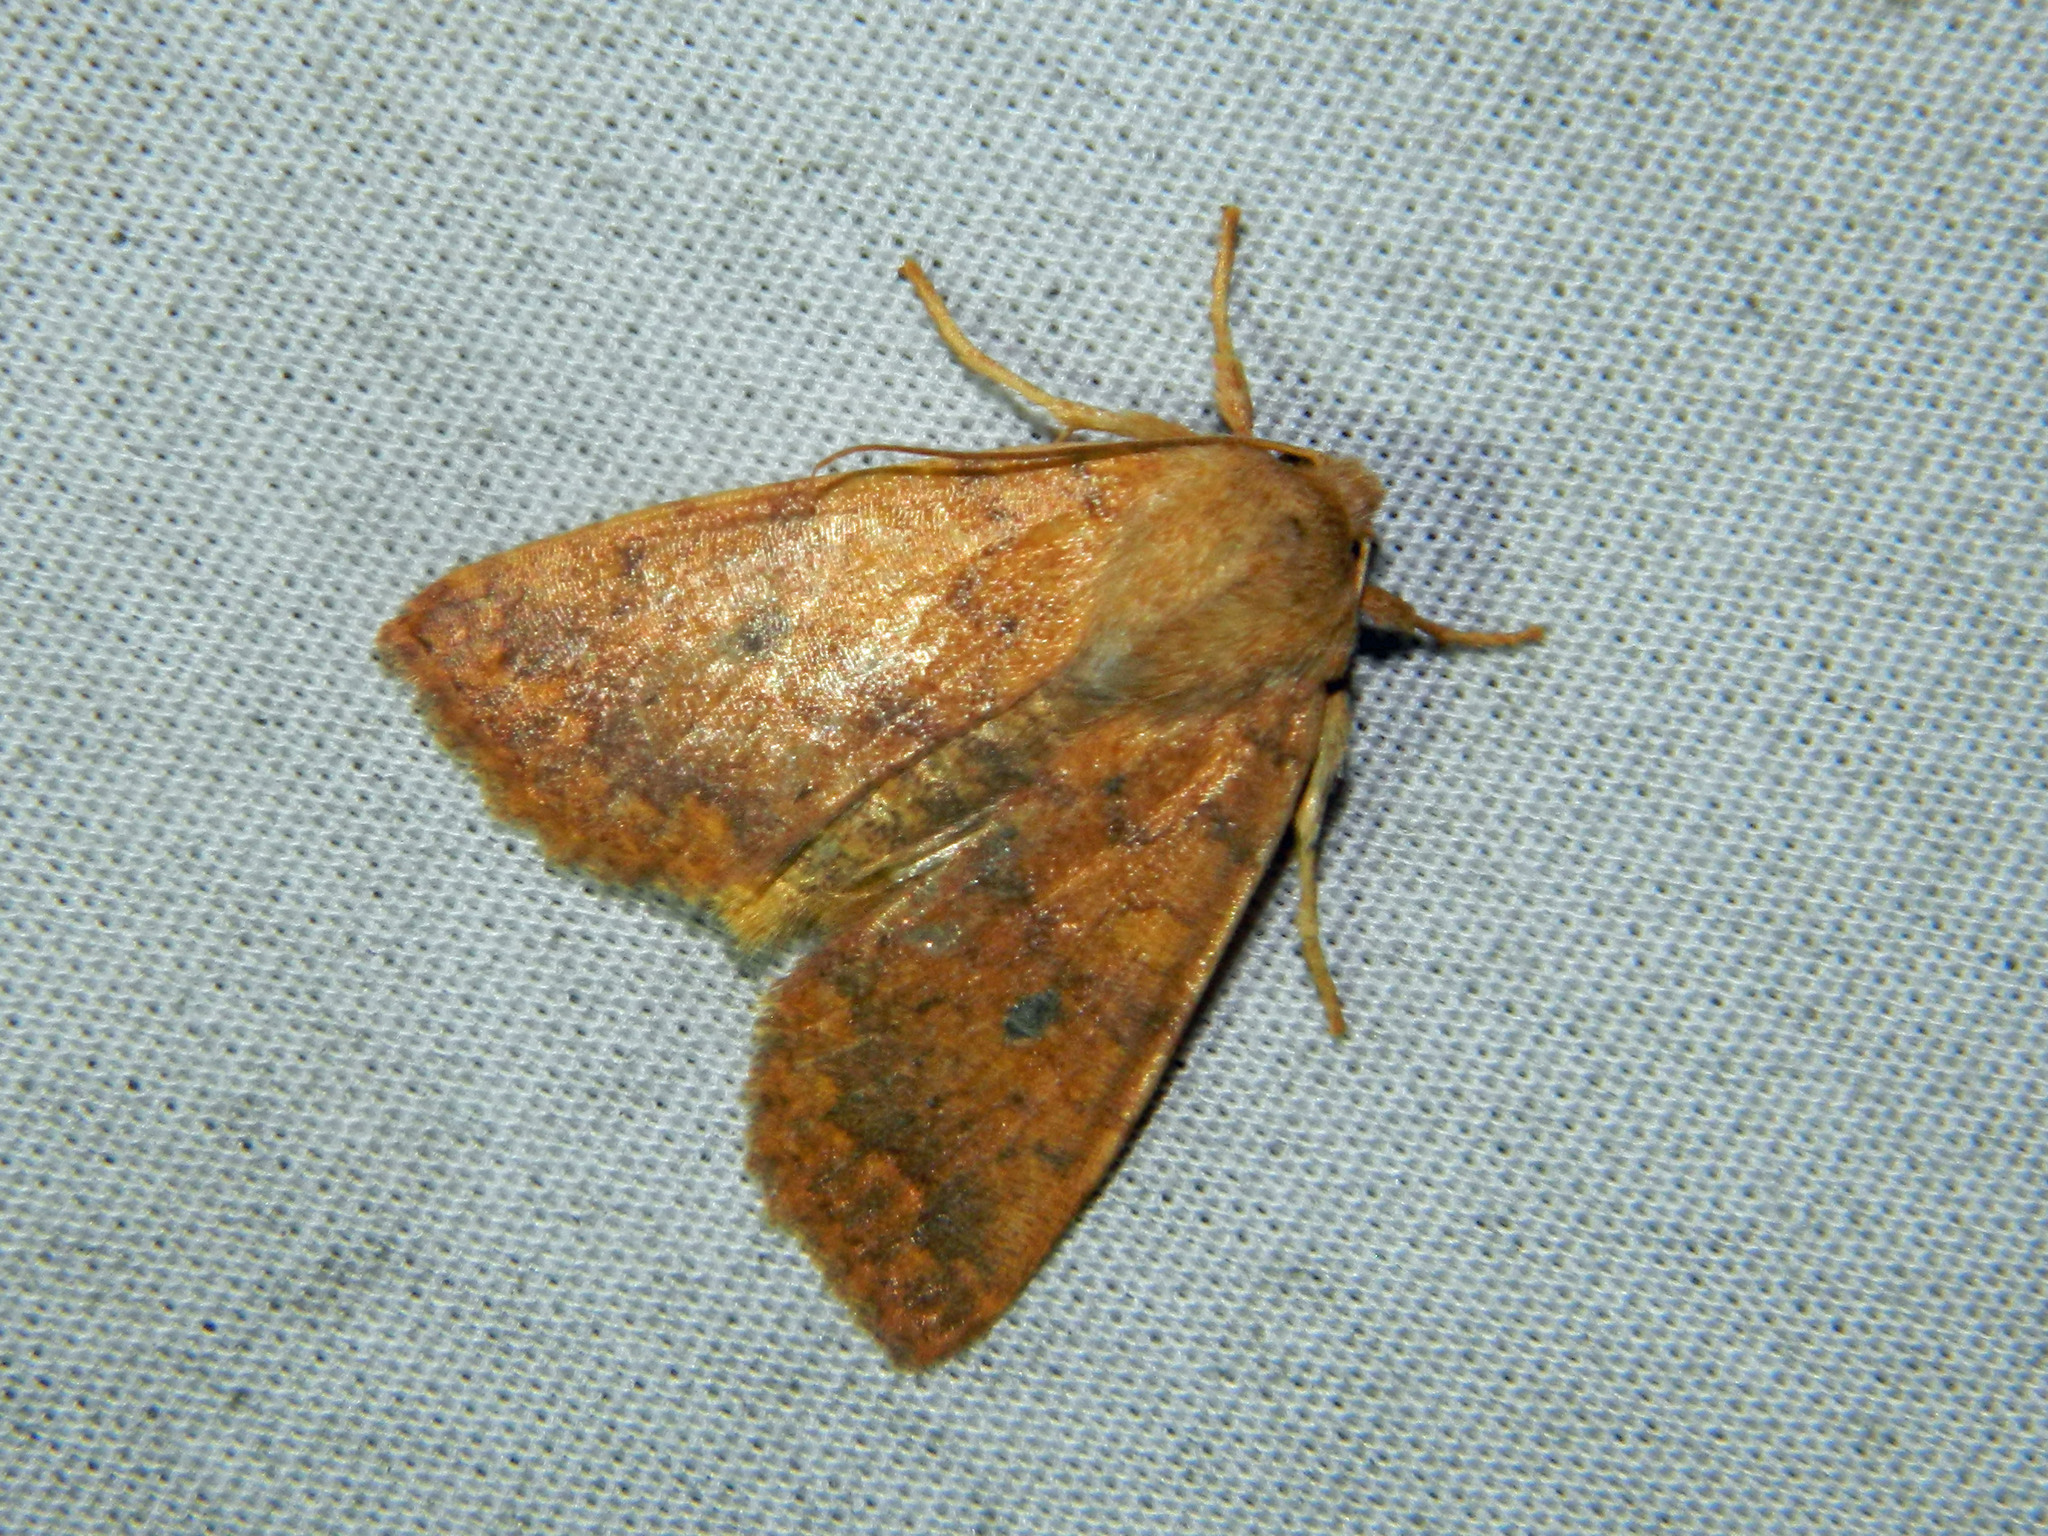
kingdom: Animalia
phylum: Arthropoda
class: Insecta
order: Lepidoptera
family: Noctuidae
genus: Agrochola
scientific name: Agrochola bicolorago
